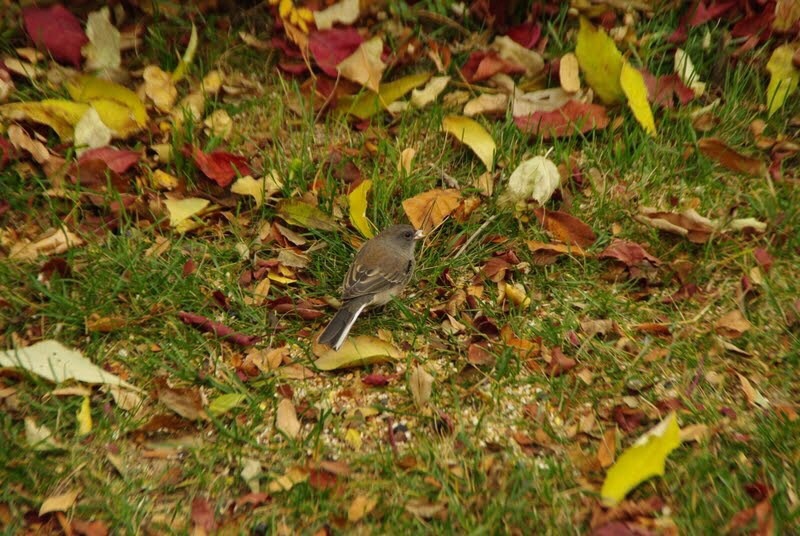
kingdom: Animalia
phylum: Chordata
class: Aves
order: Passeriformes
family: Passerellidae
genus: Junco
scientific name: Junco hyemalis
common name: Dark-eyed junco
